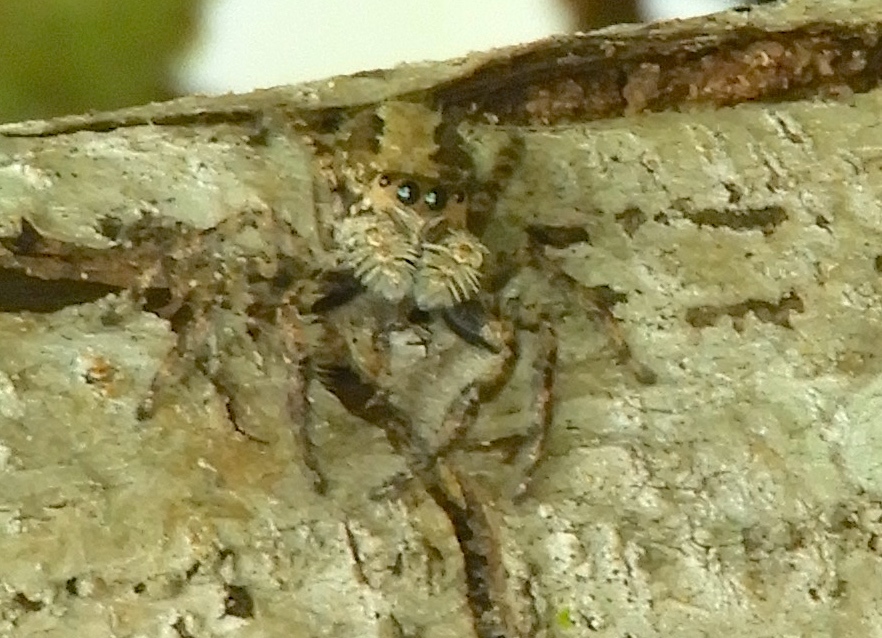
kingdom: Animalia
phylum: Arthropoda
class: Arachnida
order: Araneae
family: Salticidae
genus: Balmaceda
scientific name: Balmaceda
